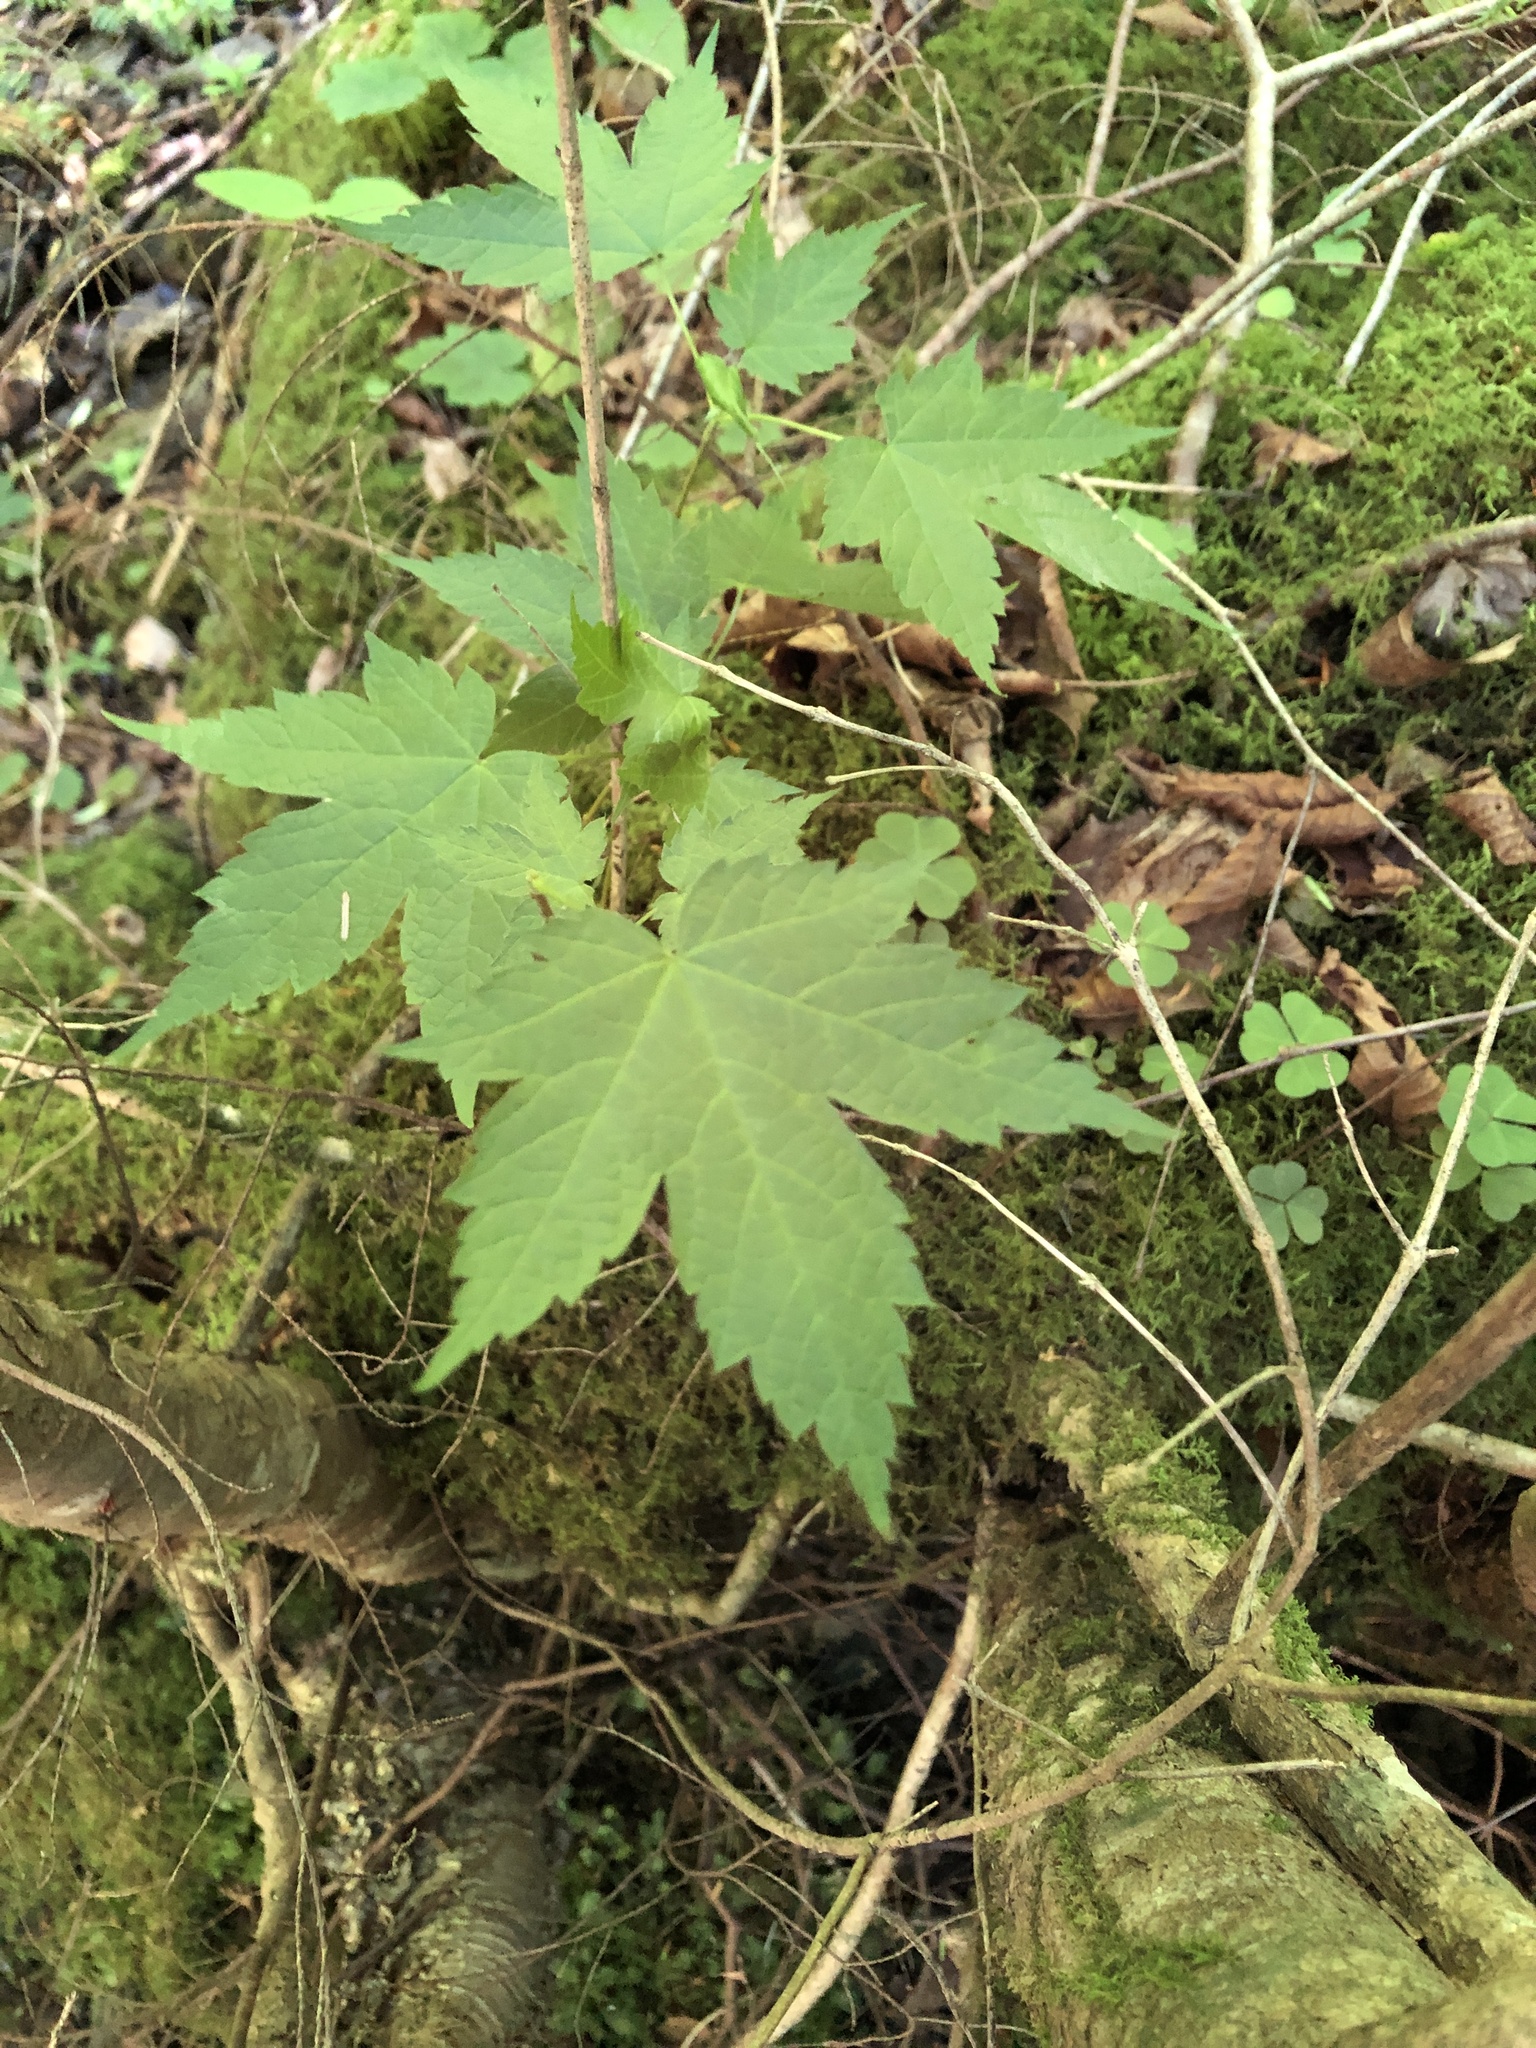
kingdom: Plantae
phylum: Tracheophyta
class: Magnoliopsida
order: Sapindales
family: Sapindaceae
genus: Acer
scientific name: Acer spicatum
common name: Mountain maple
